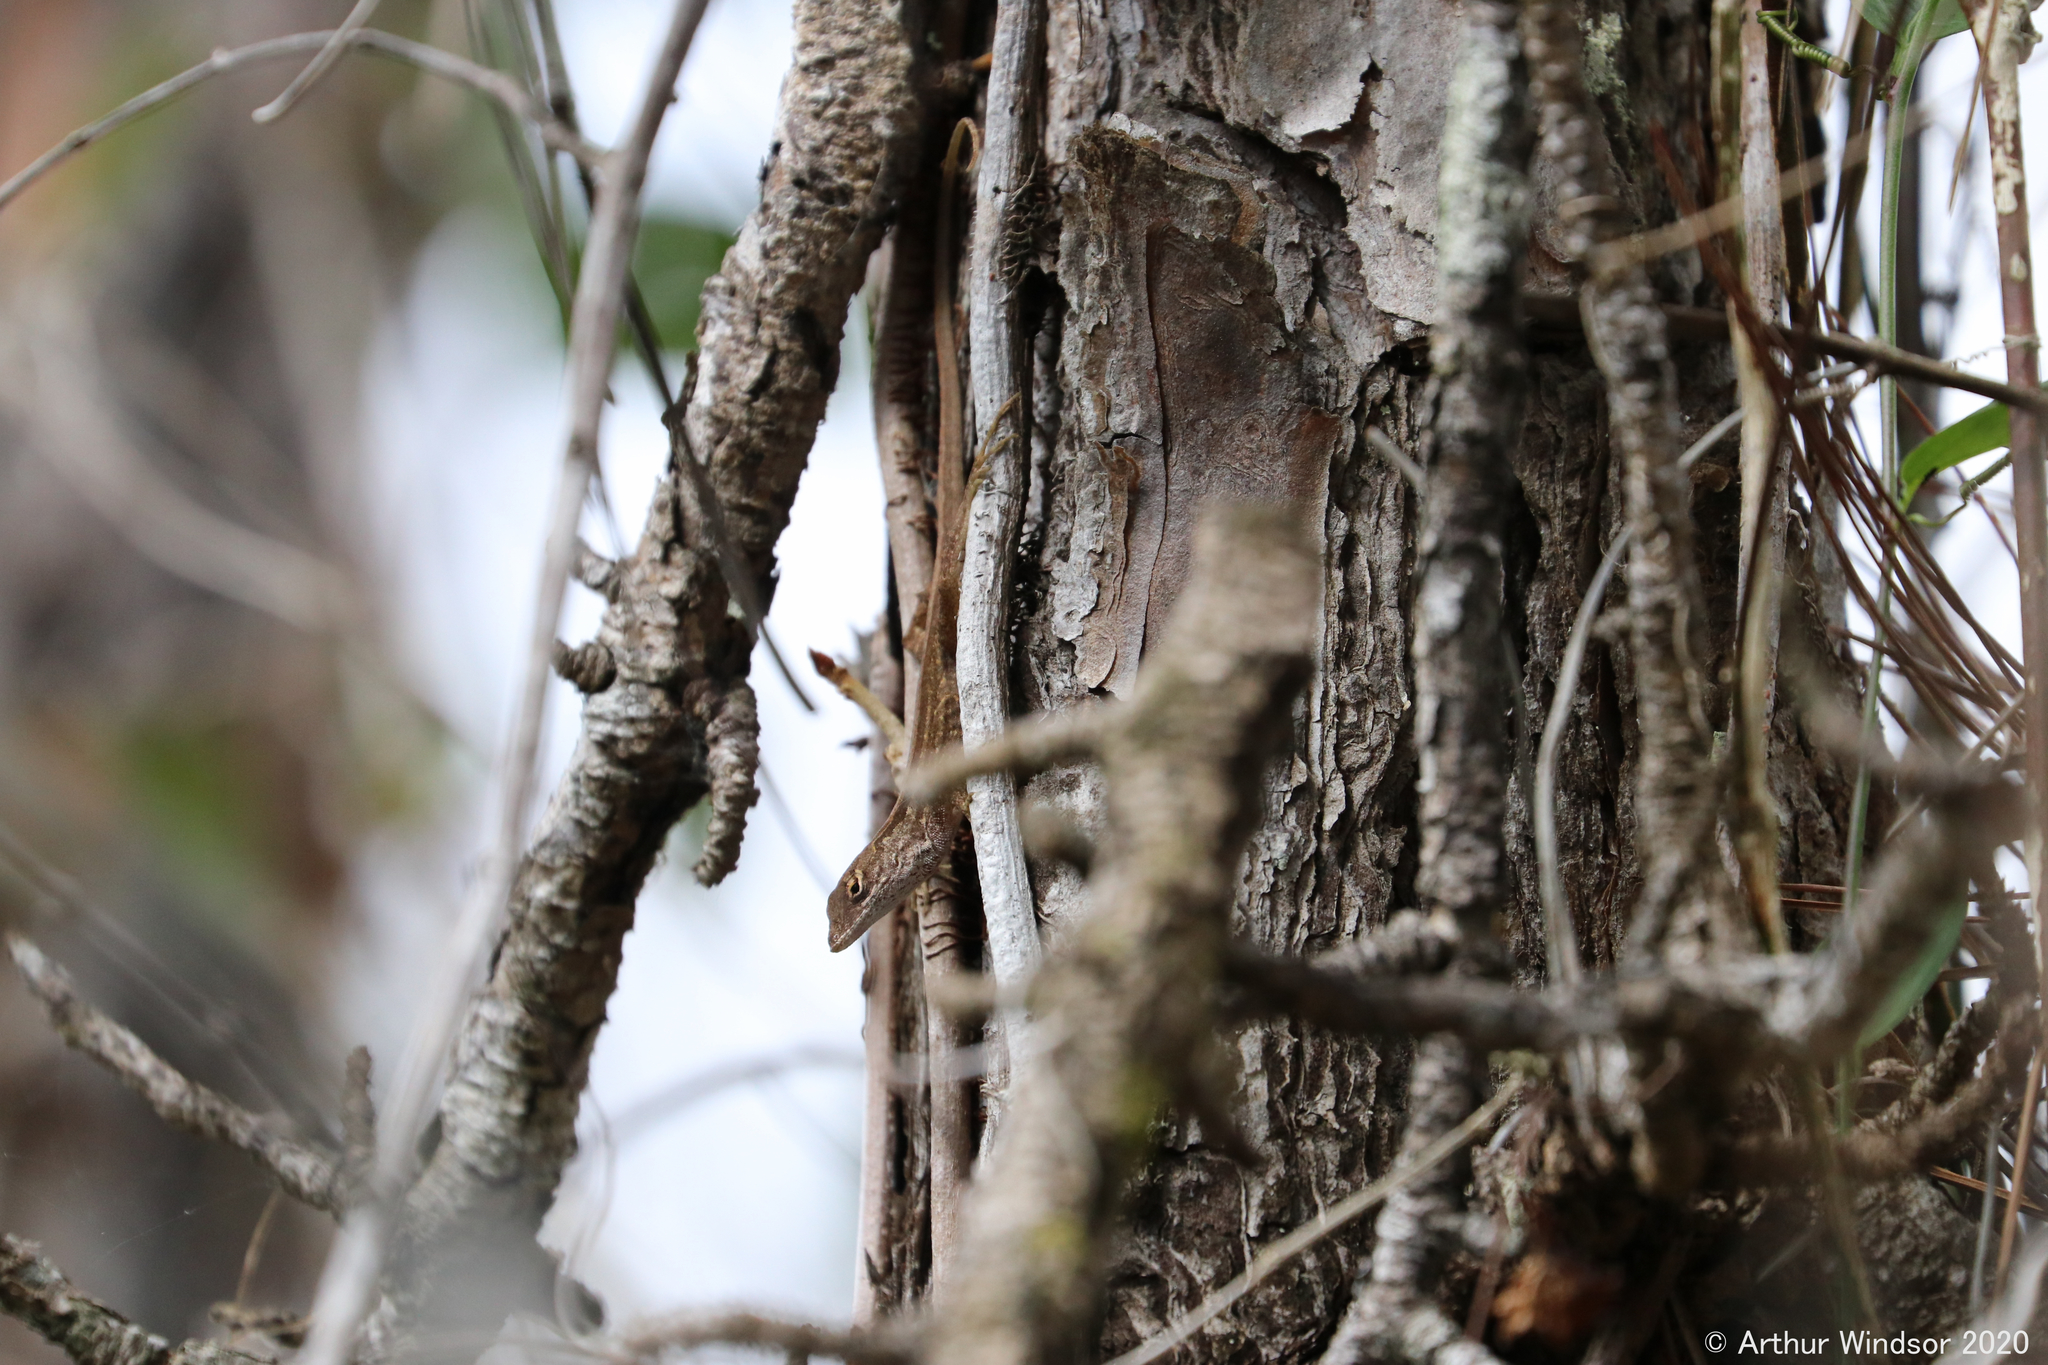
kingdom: Animalia
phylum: Chordata
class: Squamata
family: Dactyloidae
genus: Anolis
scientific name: Anolis sagrei
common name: Brown anole
